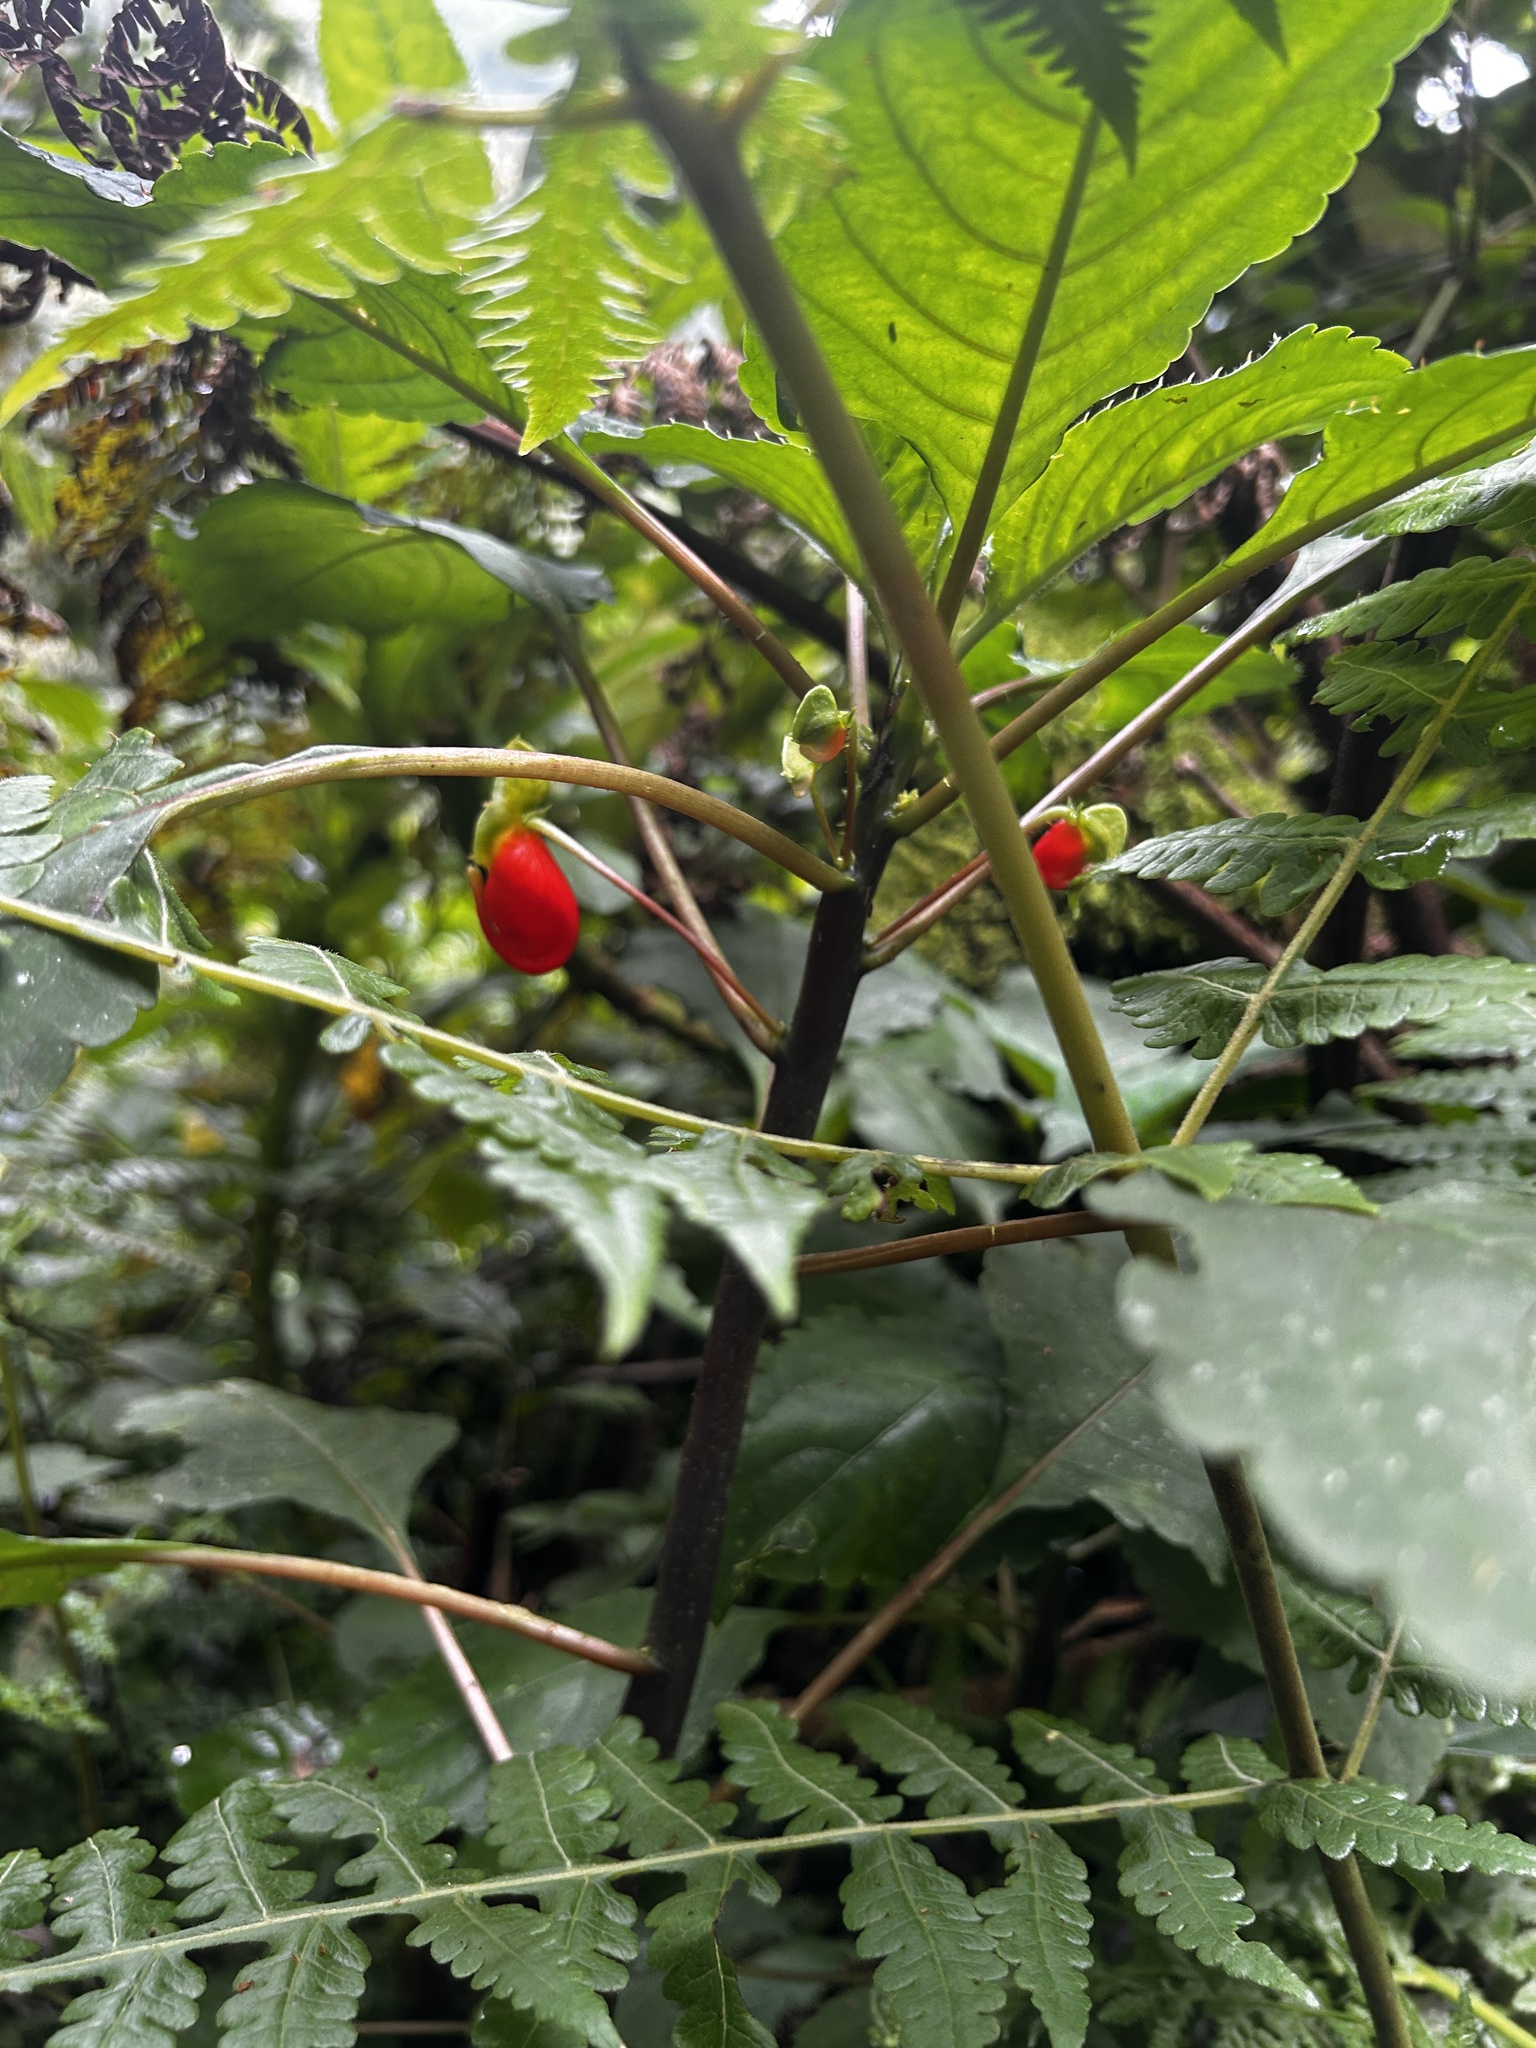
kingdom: Plantae
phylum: Tracheophyta
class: Magnoliopsida
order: Ericales
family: Balsaminaceae
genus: Impatiens
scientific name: Impatiens niamniamensis
